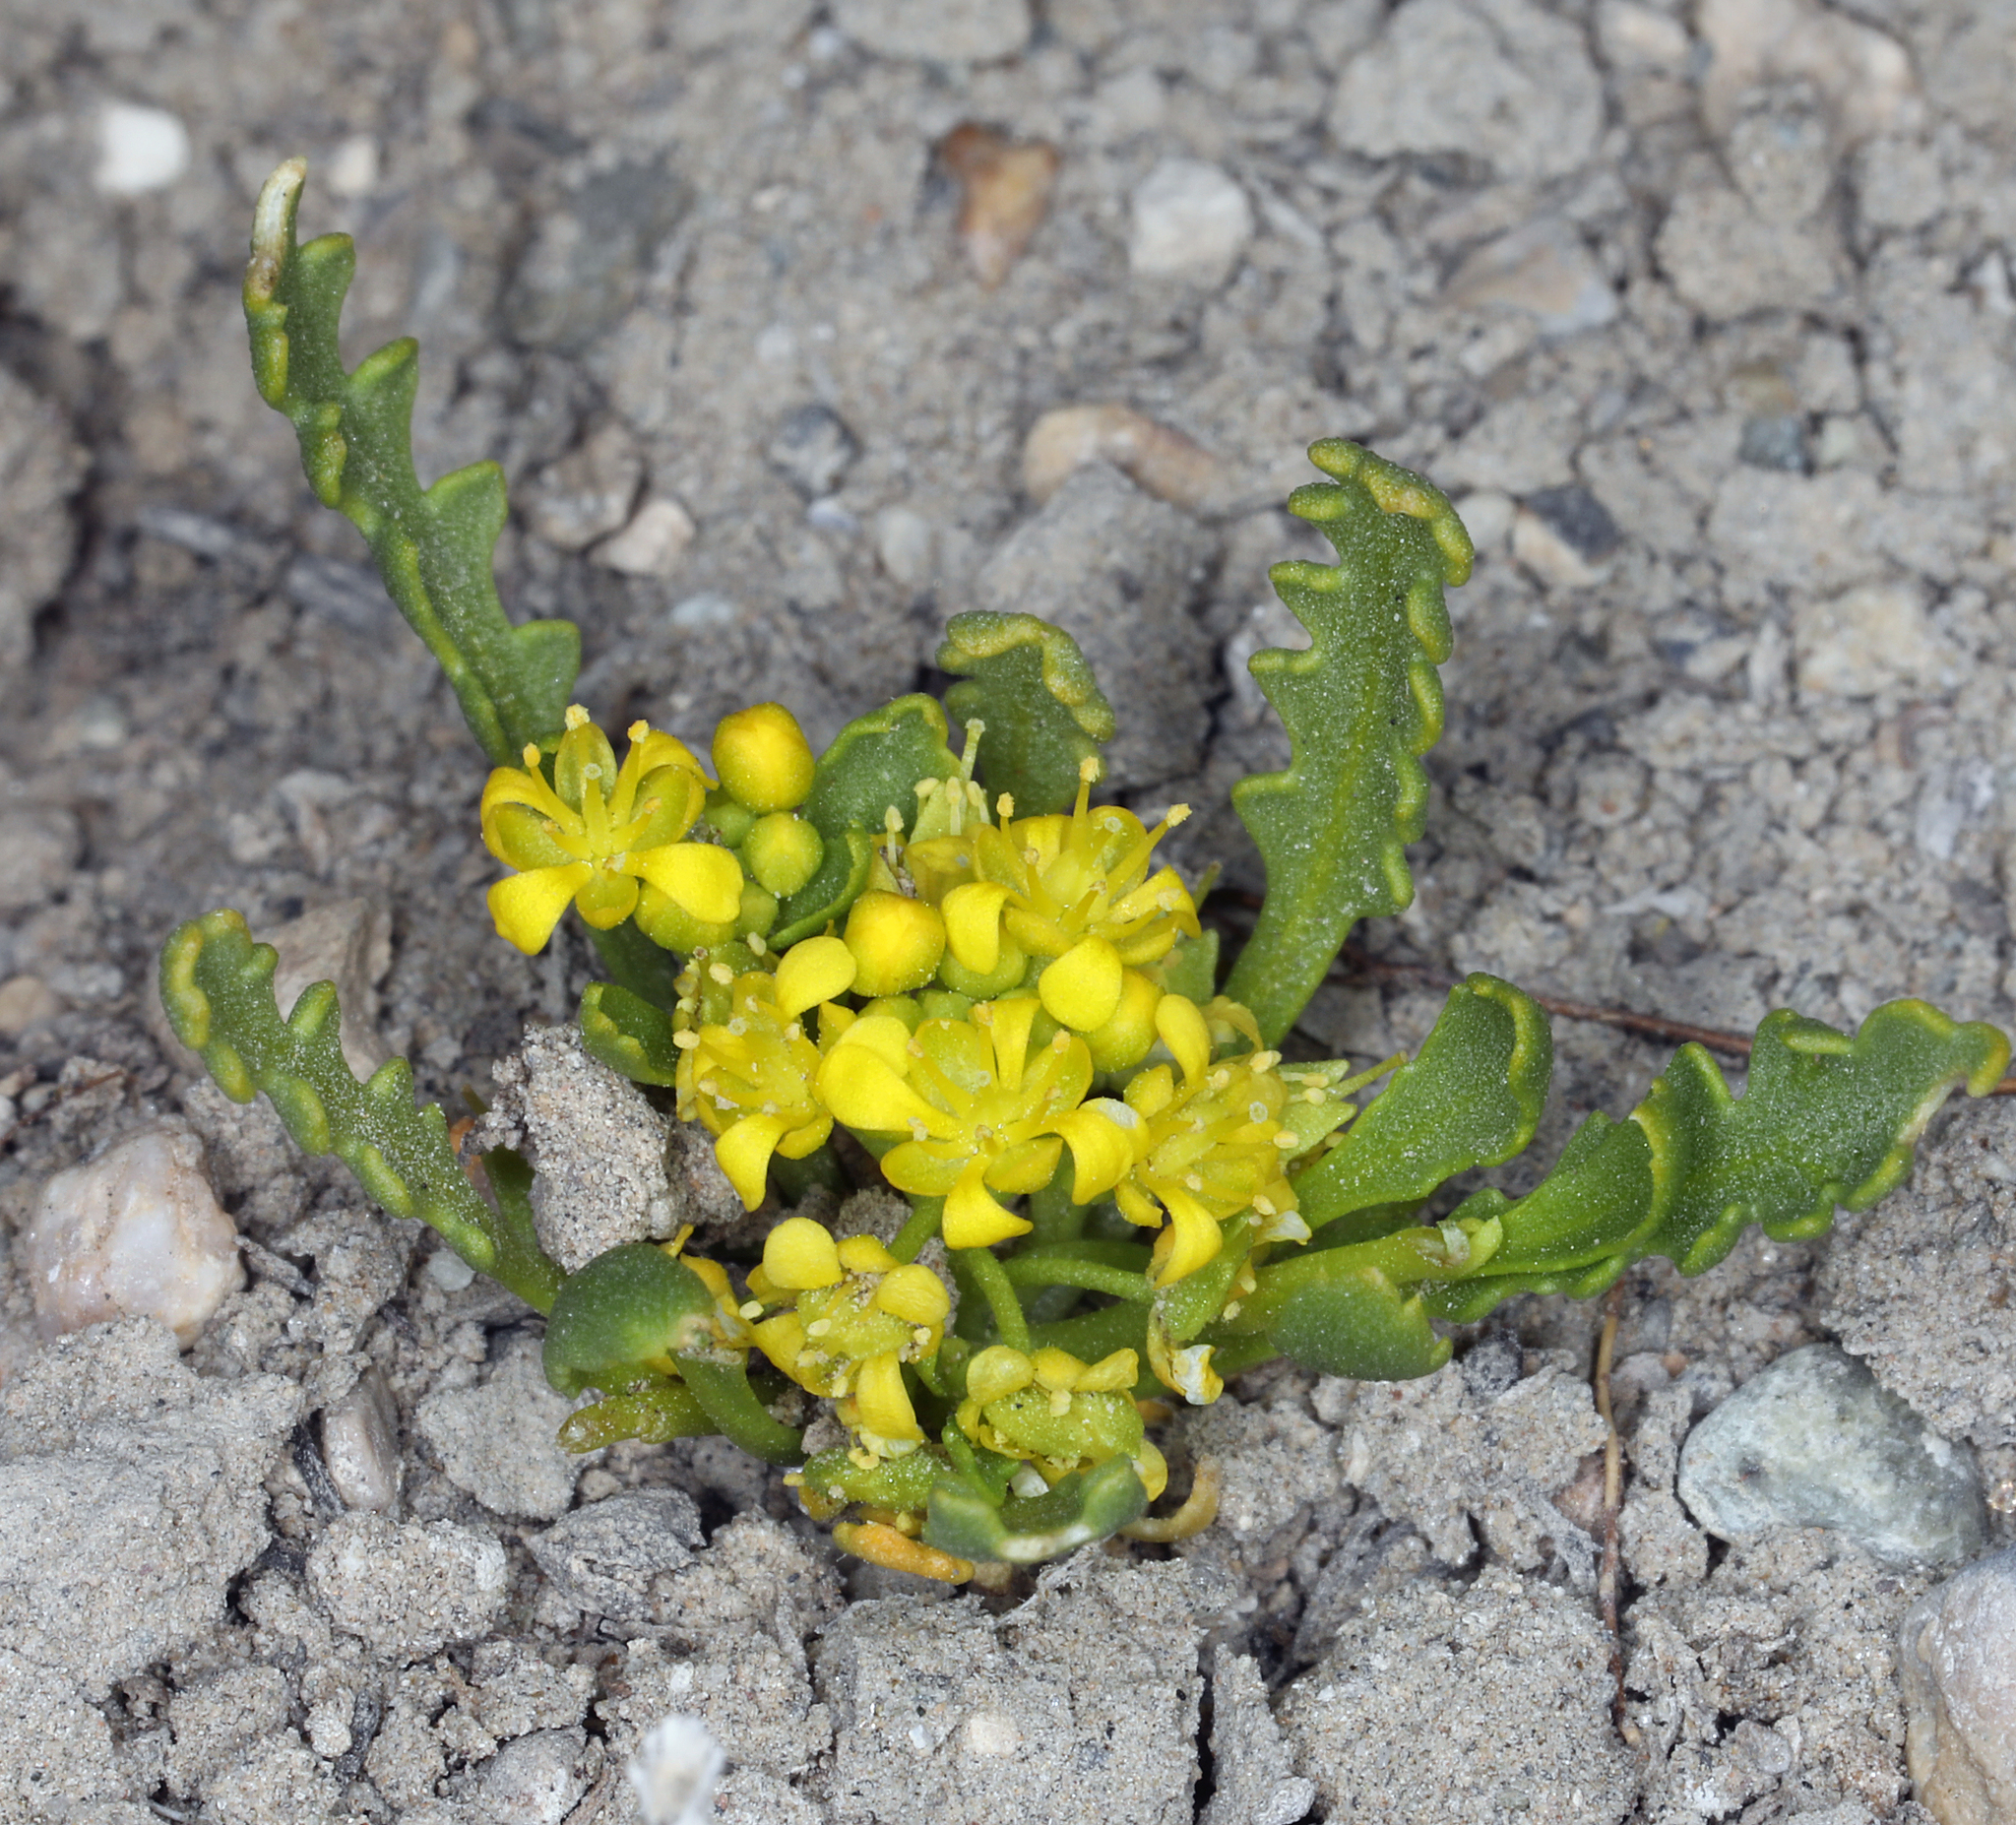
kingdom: Plantae
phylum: Tracheophyta
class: Magnoliopsida
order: Brassicales
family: Brassicaceae
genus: Lepidium
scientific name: Lepidium flavum
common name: Yellow pepperwort
